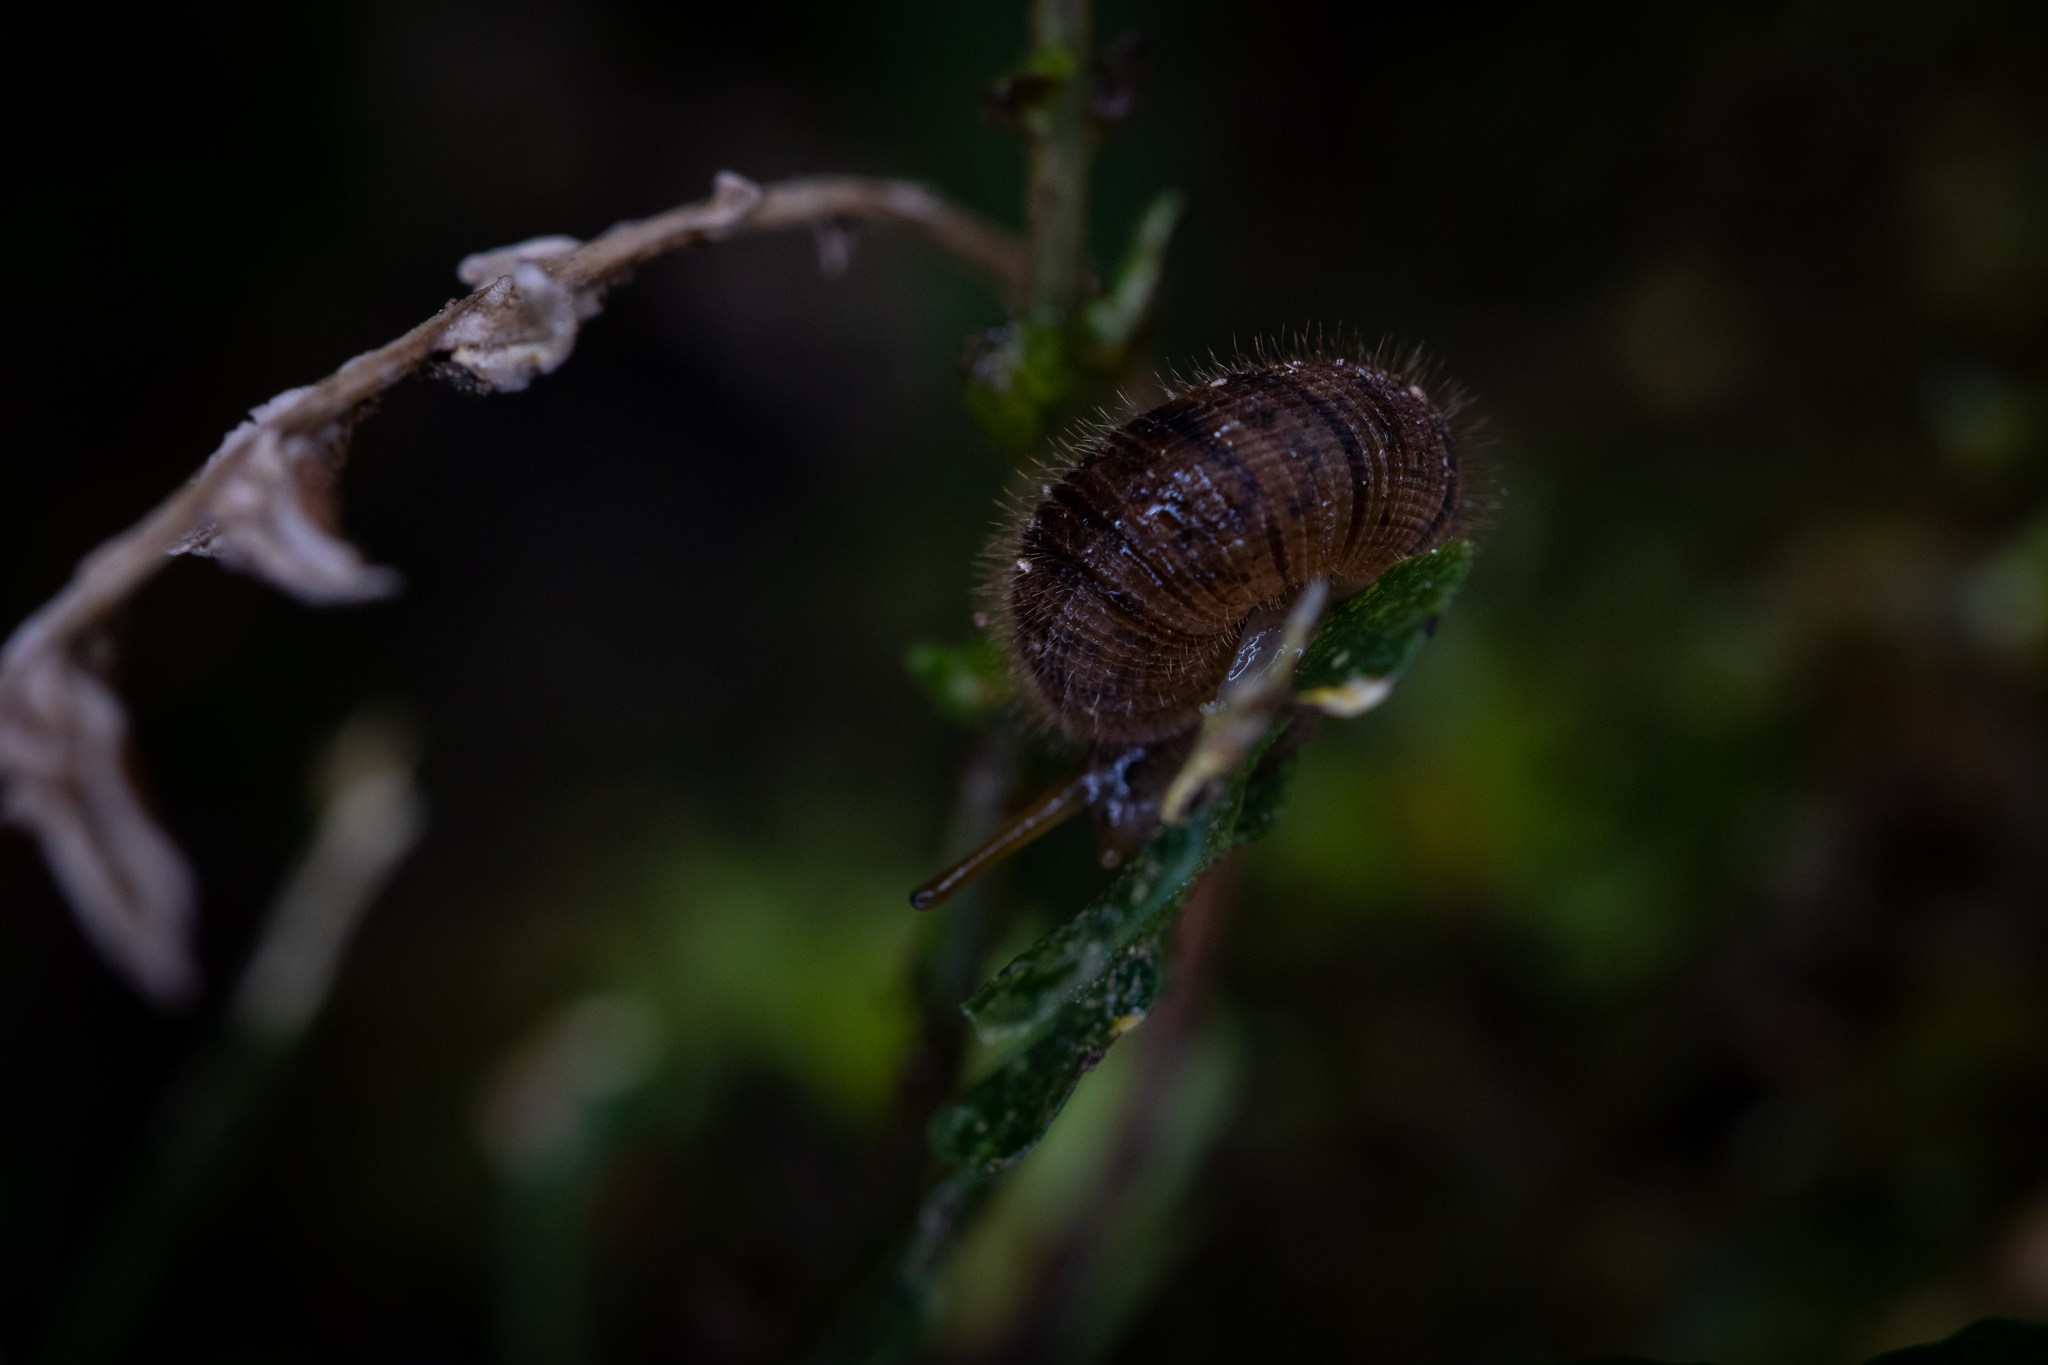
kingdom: Animalia
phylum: Mollusca
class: Gastropoda
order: Stylommatophora
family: Charopidae
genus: Suteria
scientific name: Suteria ide
